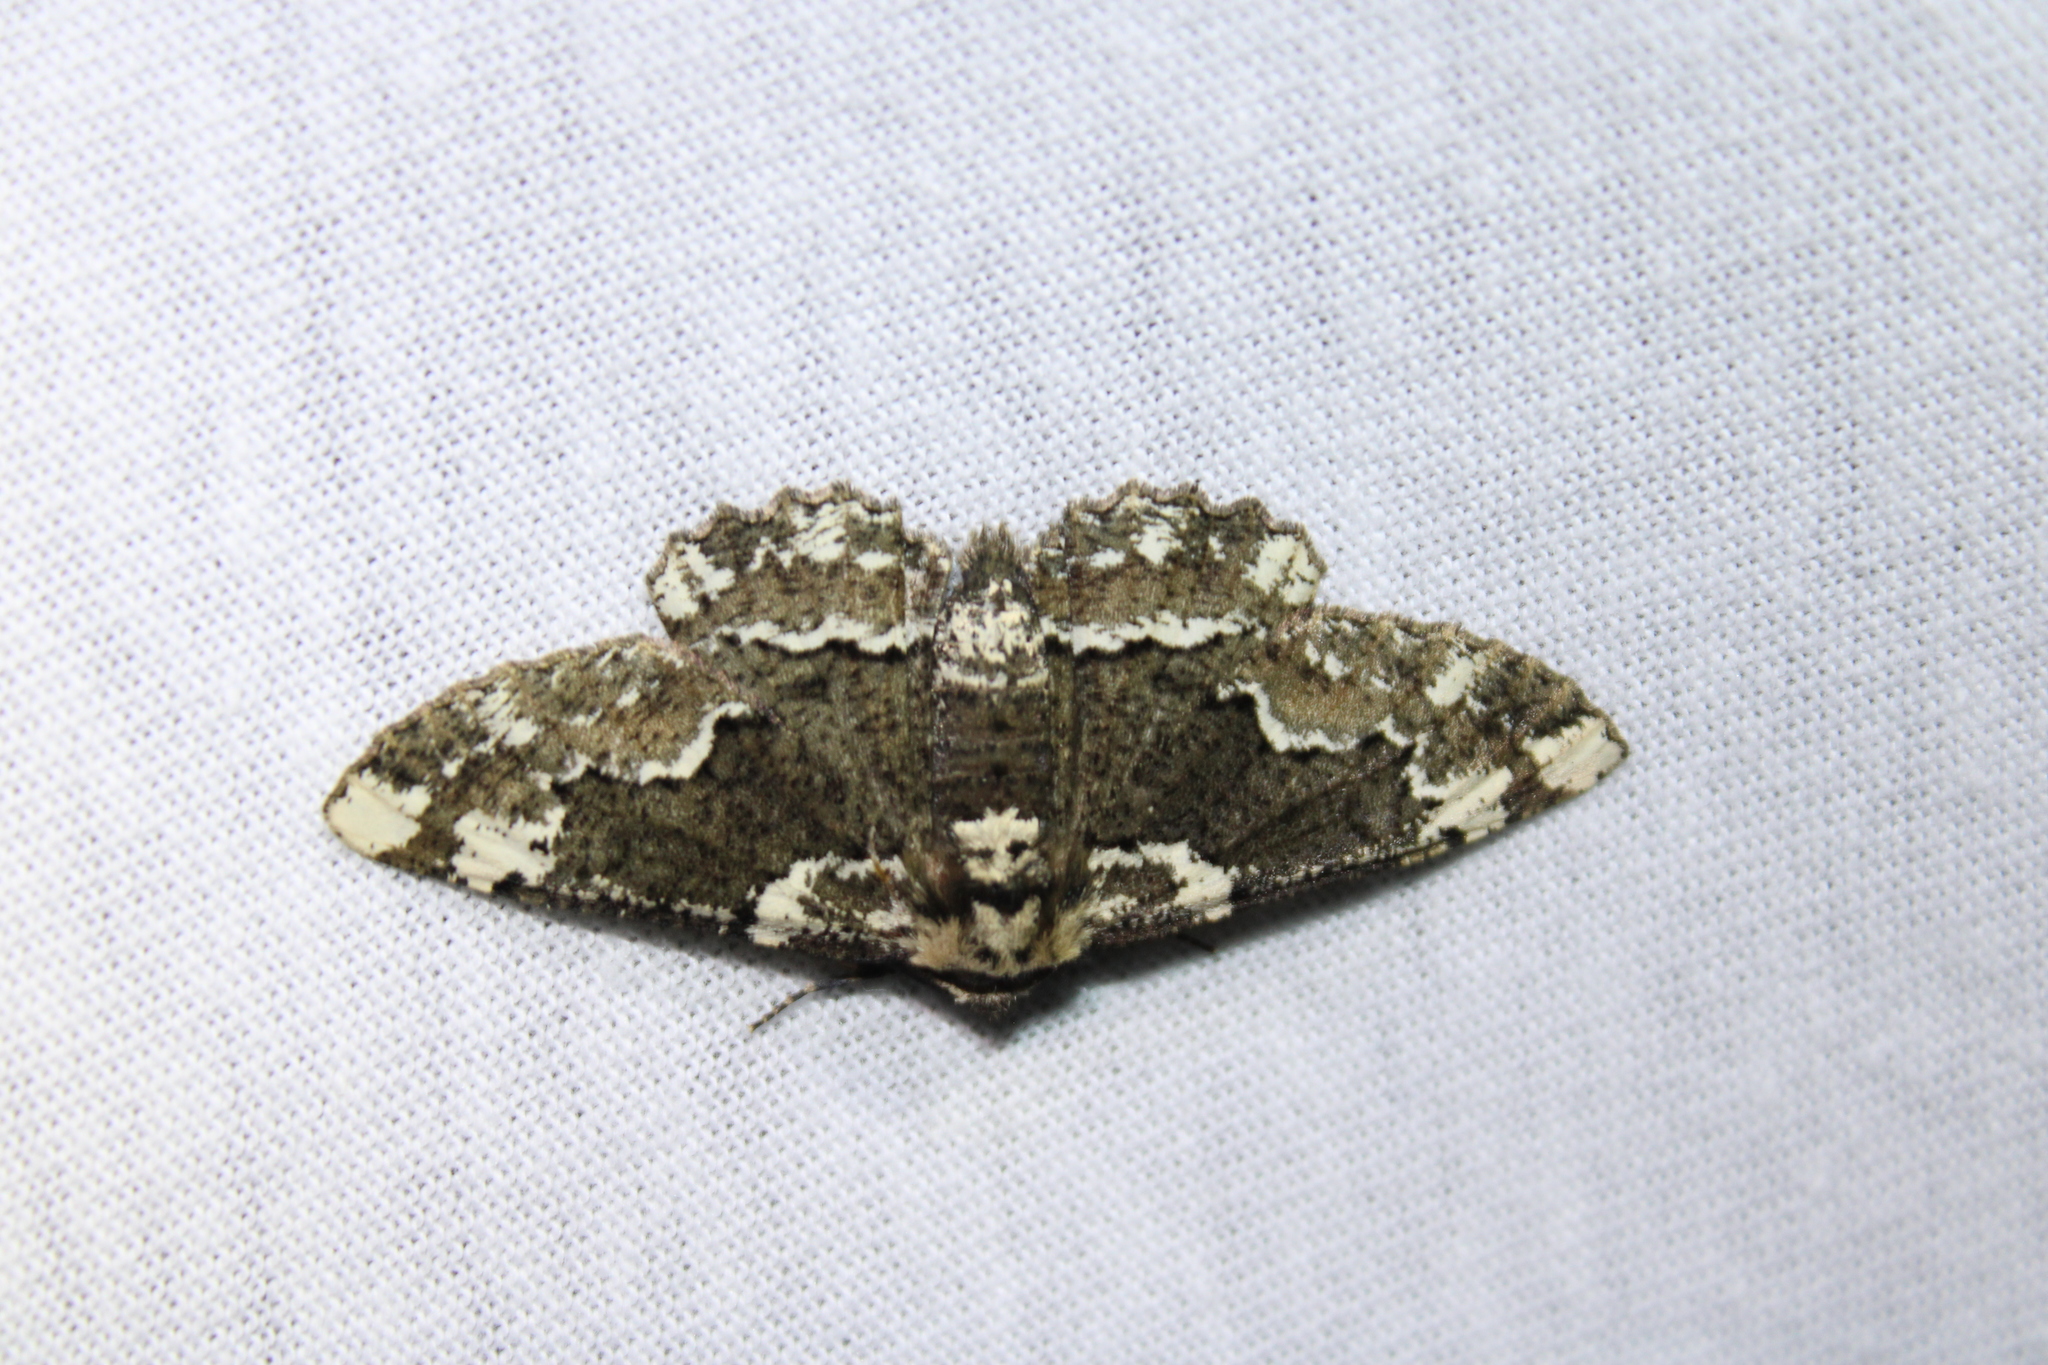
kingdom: Animalia
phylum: Arthropoda
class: Insecta
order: Lepidoptera
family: Geometridae
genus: Phaeoura
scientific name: Phaeoura quernaria
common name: Oak beauty
